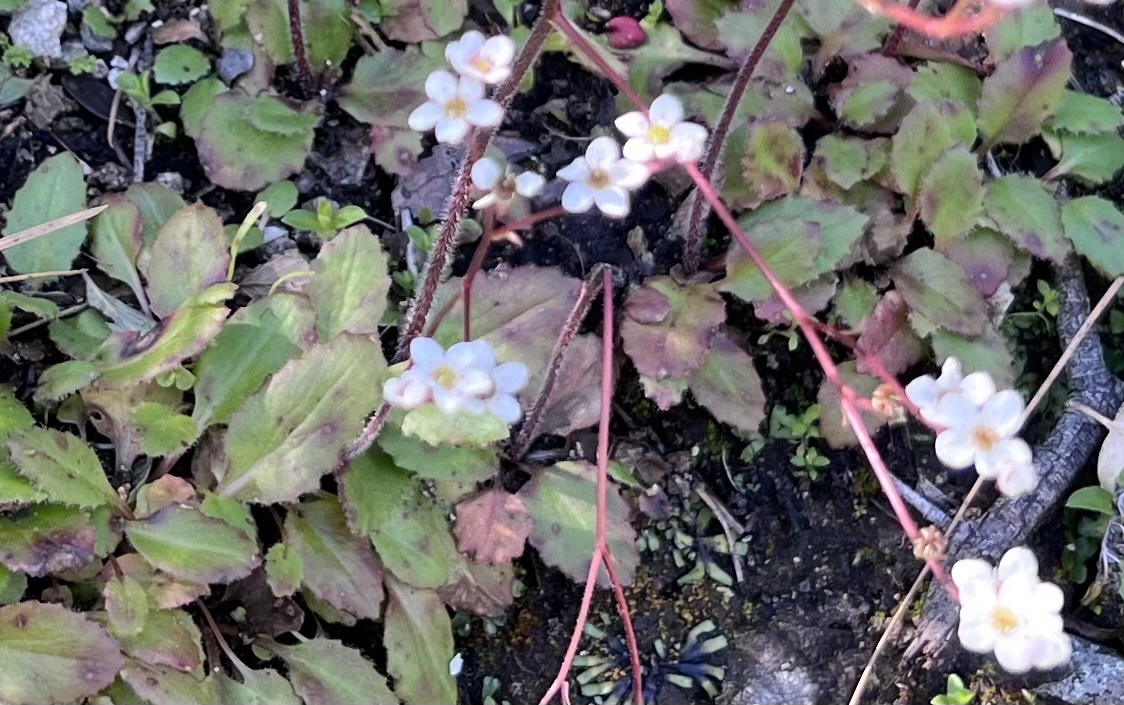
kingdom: Plantae
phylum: Tracheophyta
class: Magnoliopsida
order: Saxifragales
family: Saxifragaceae
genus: Micranthes
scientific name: Micranthes californica
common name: California saxifrage
